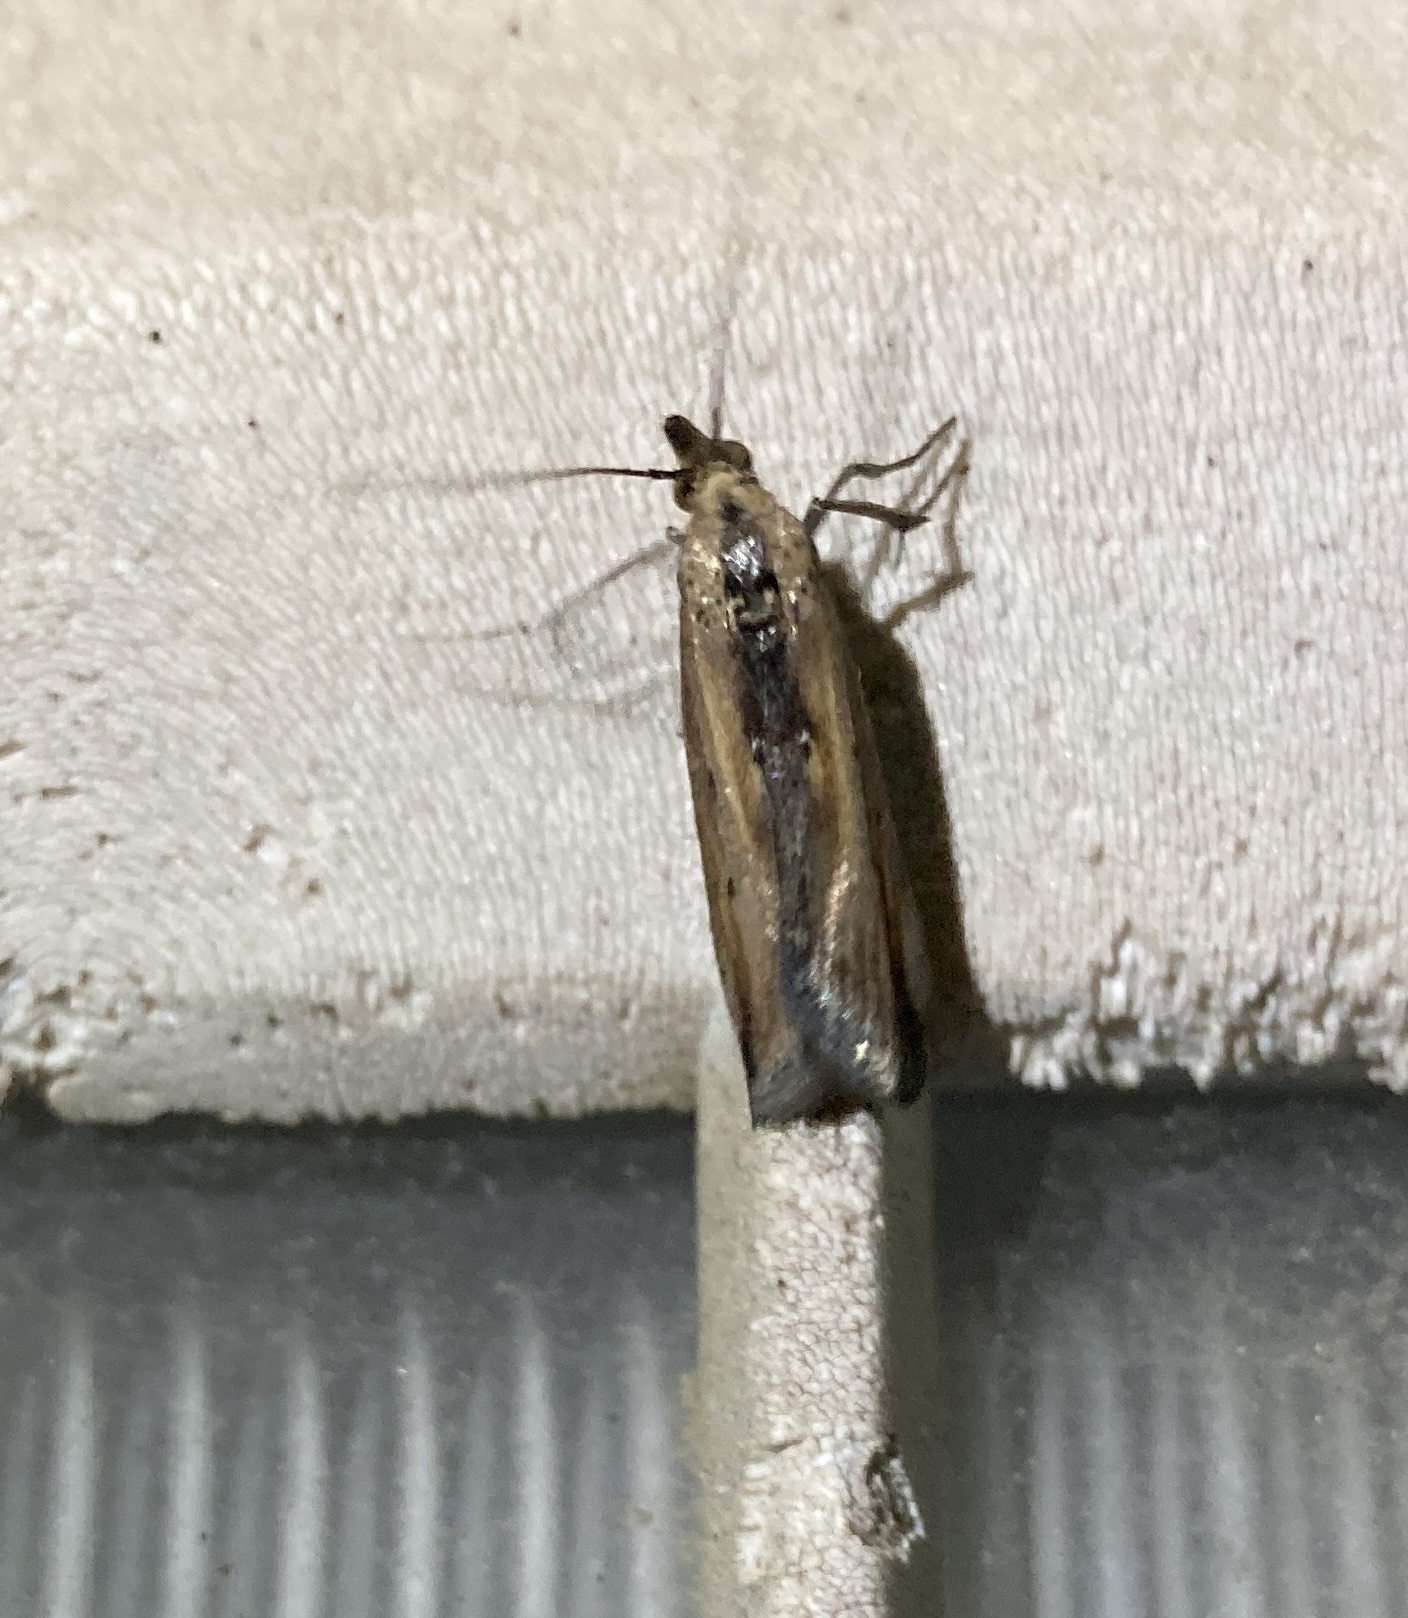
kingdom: Animalia
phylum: Arthropoda
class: Insecta
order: Lepidoptera
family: Pyralidae
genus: Morosaphycita
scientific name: Morosaphycita oculiferella
